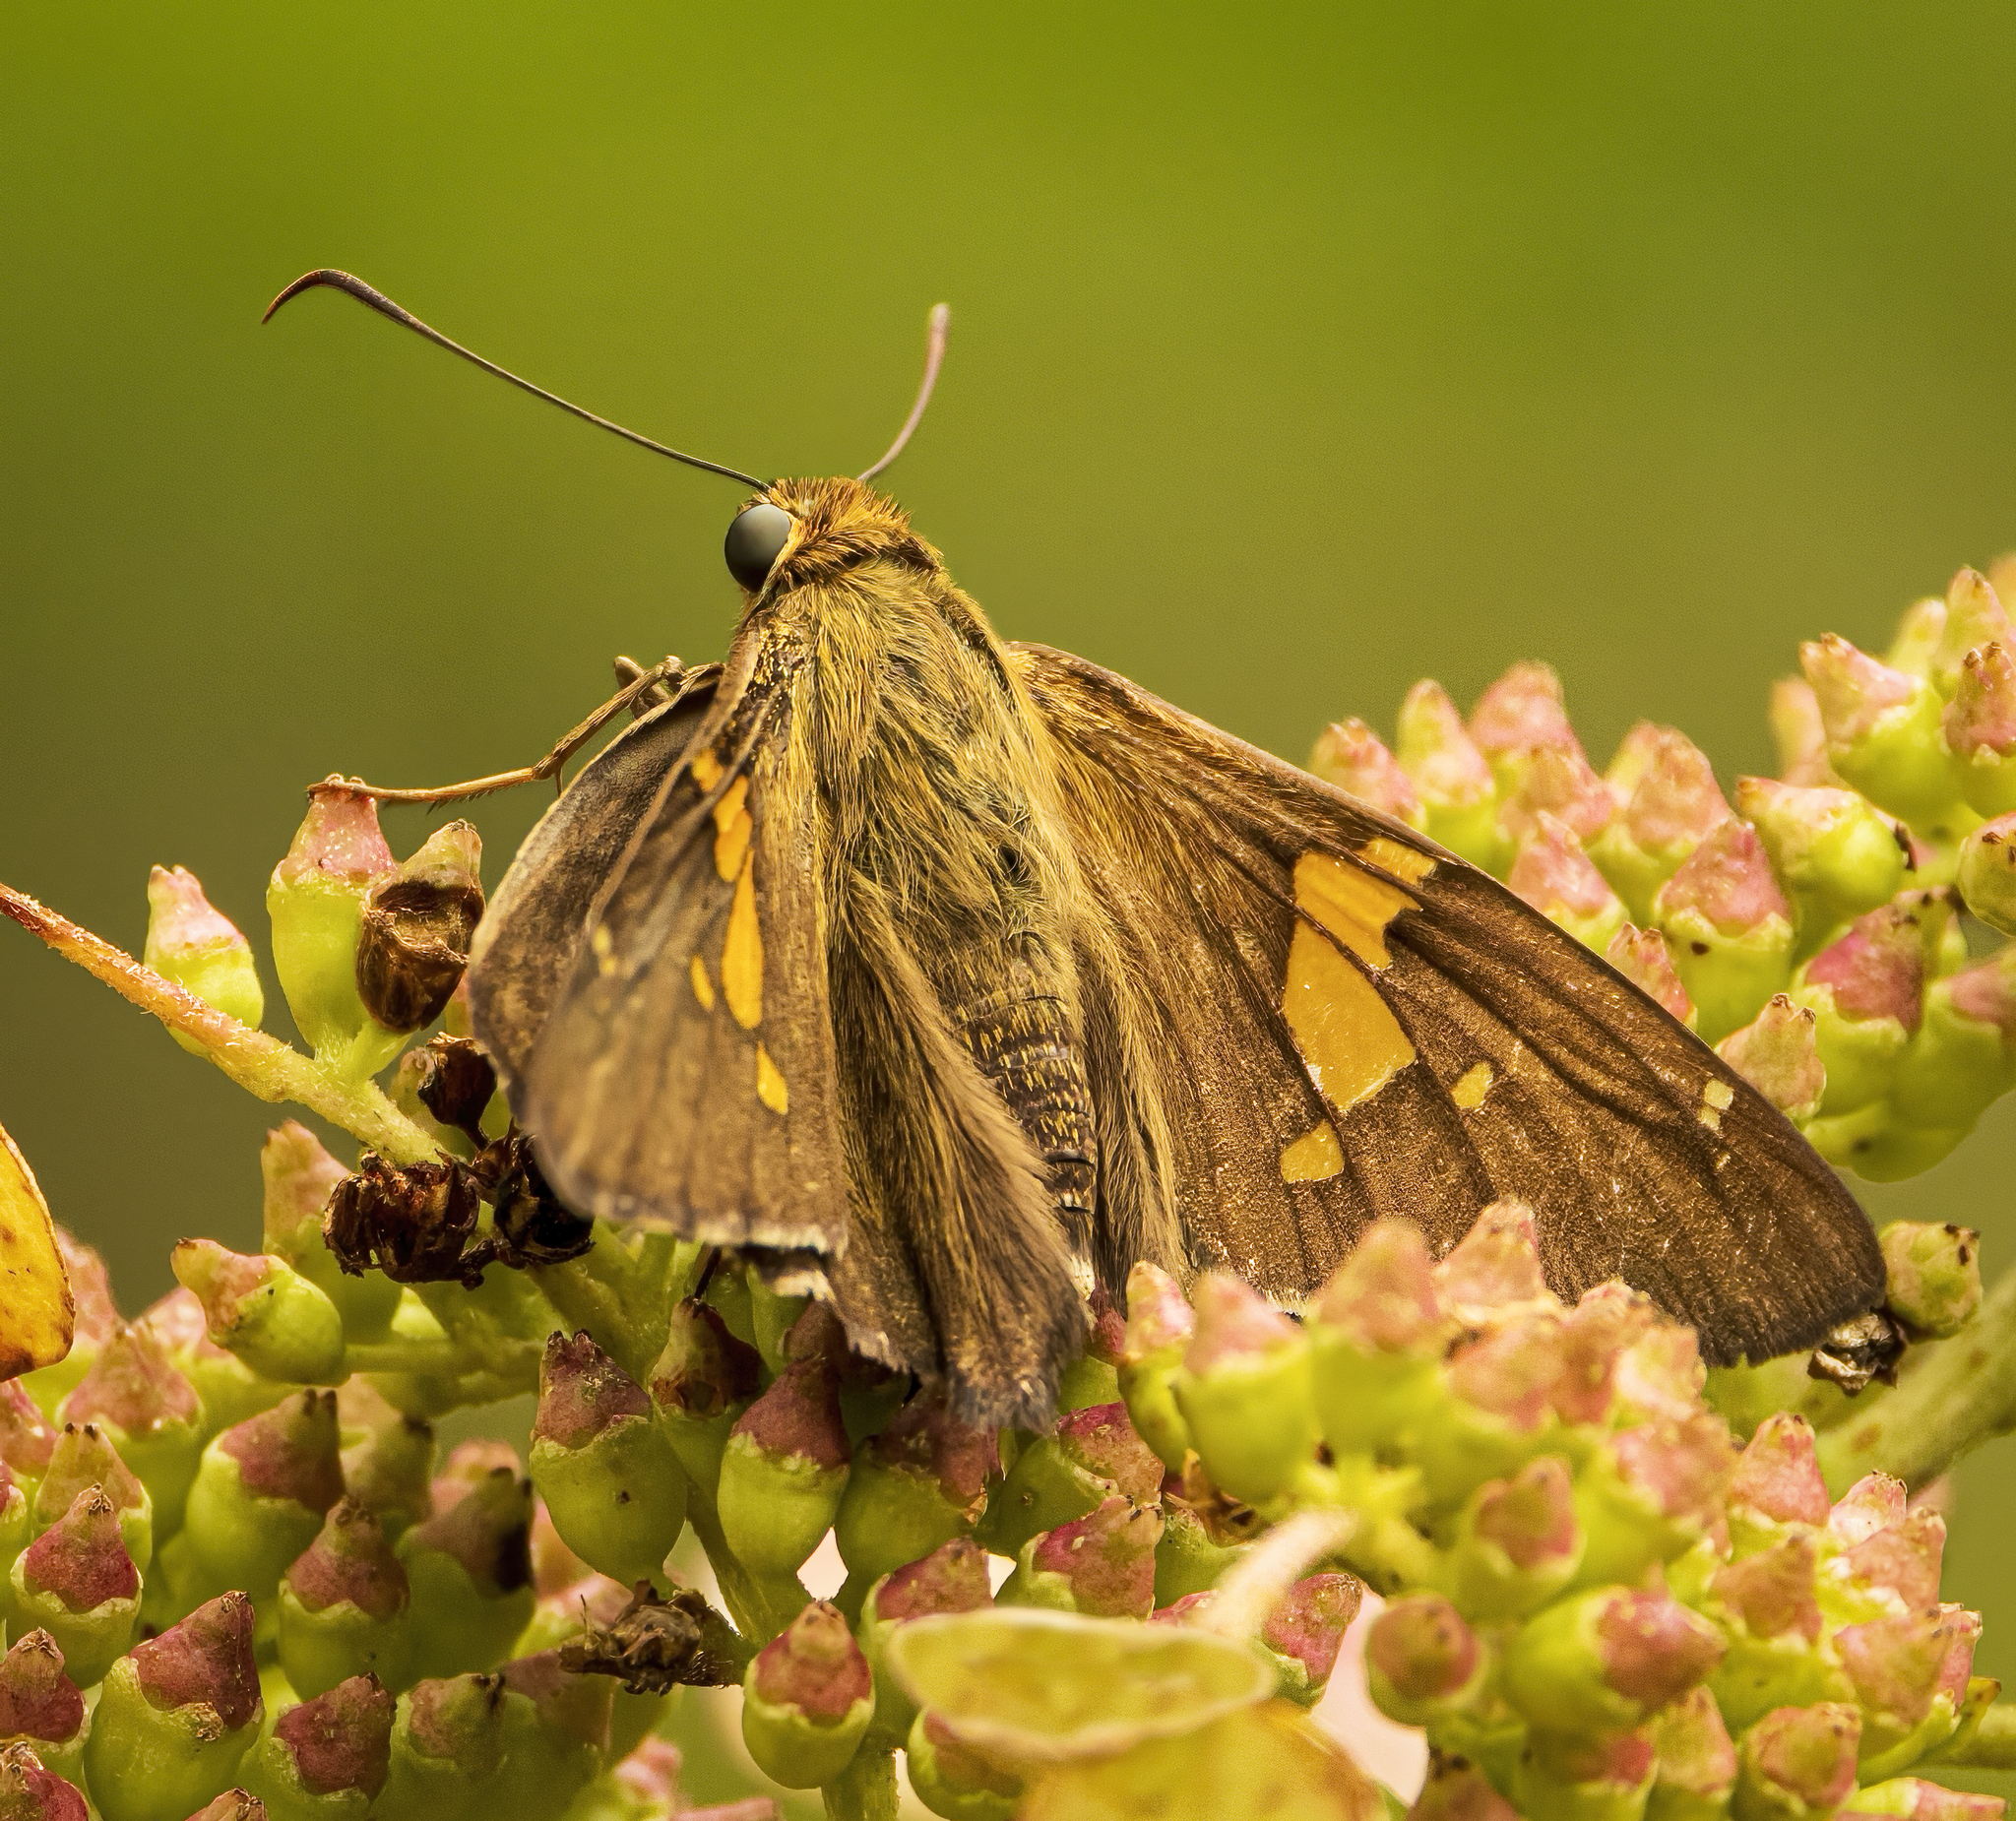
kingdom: Animalia
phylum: Arthropoda
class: Insecta
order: Lepidoptera
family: Hesperiidae
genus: Epargyreus
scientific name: Epargyreus clarus
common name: Silver-spotted skipper
